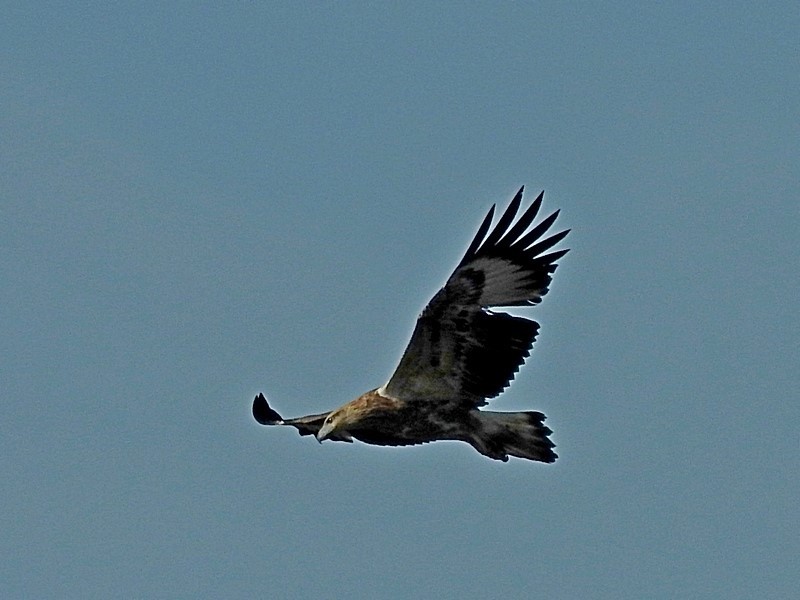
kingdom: Animalia
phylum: Chordata
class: Aves
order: Accipitriformes
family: Accipitridae
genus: Haliaeetus
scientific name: Haliaeetus leucogaster
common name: White-bellied sea eagle
